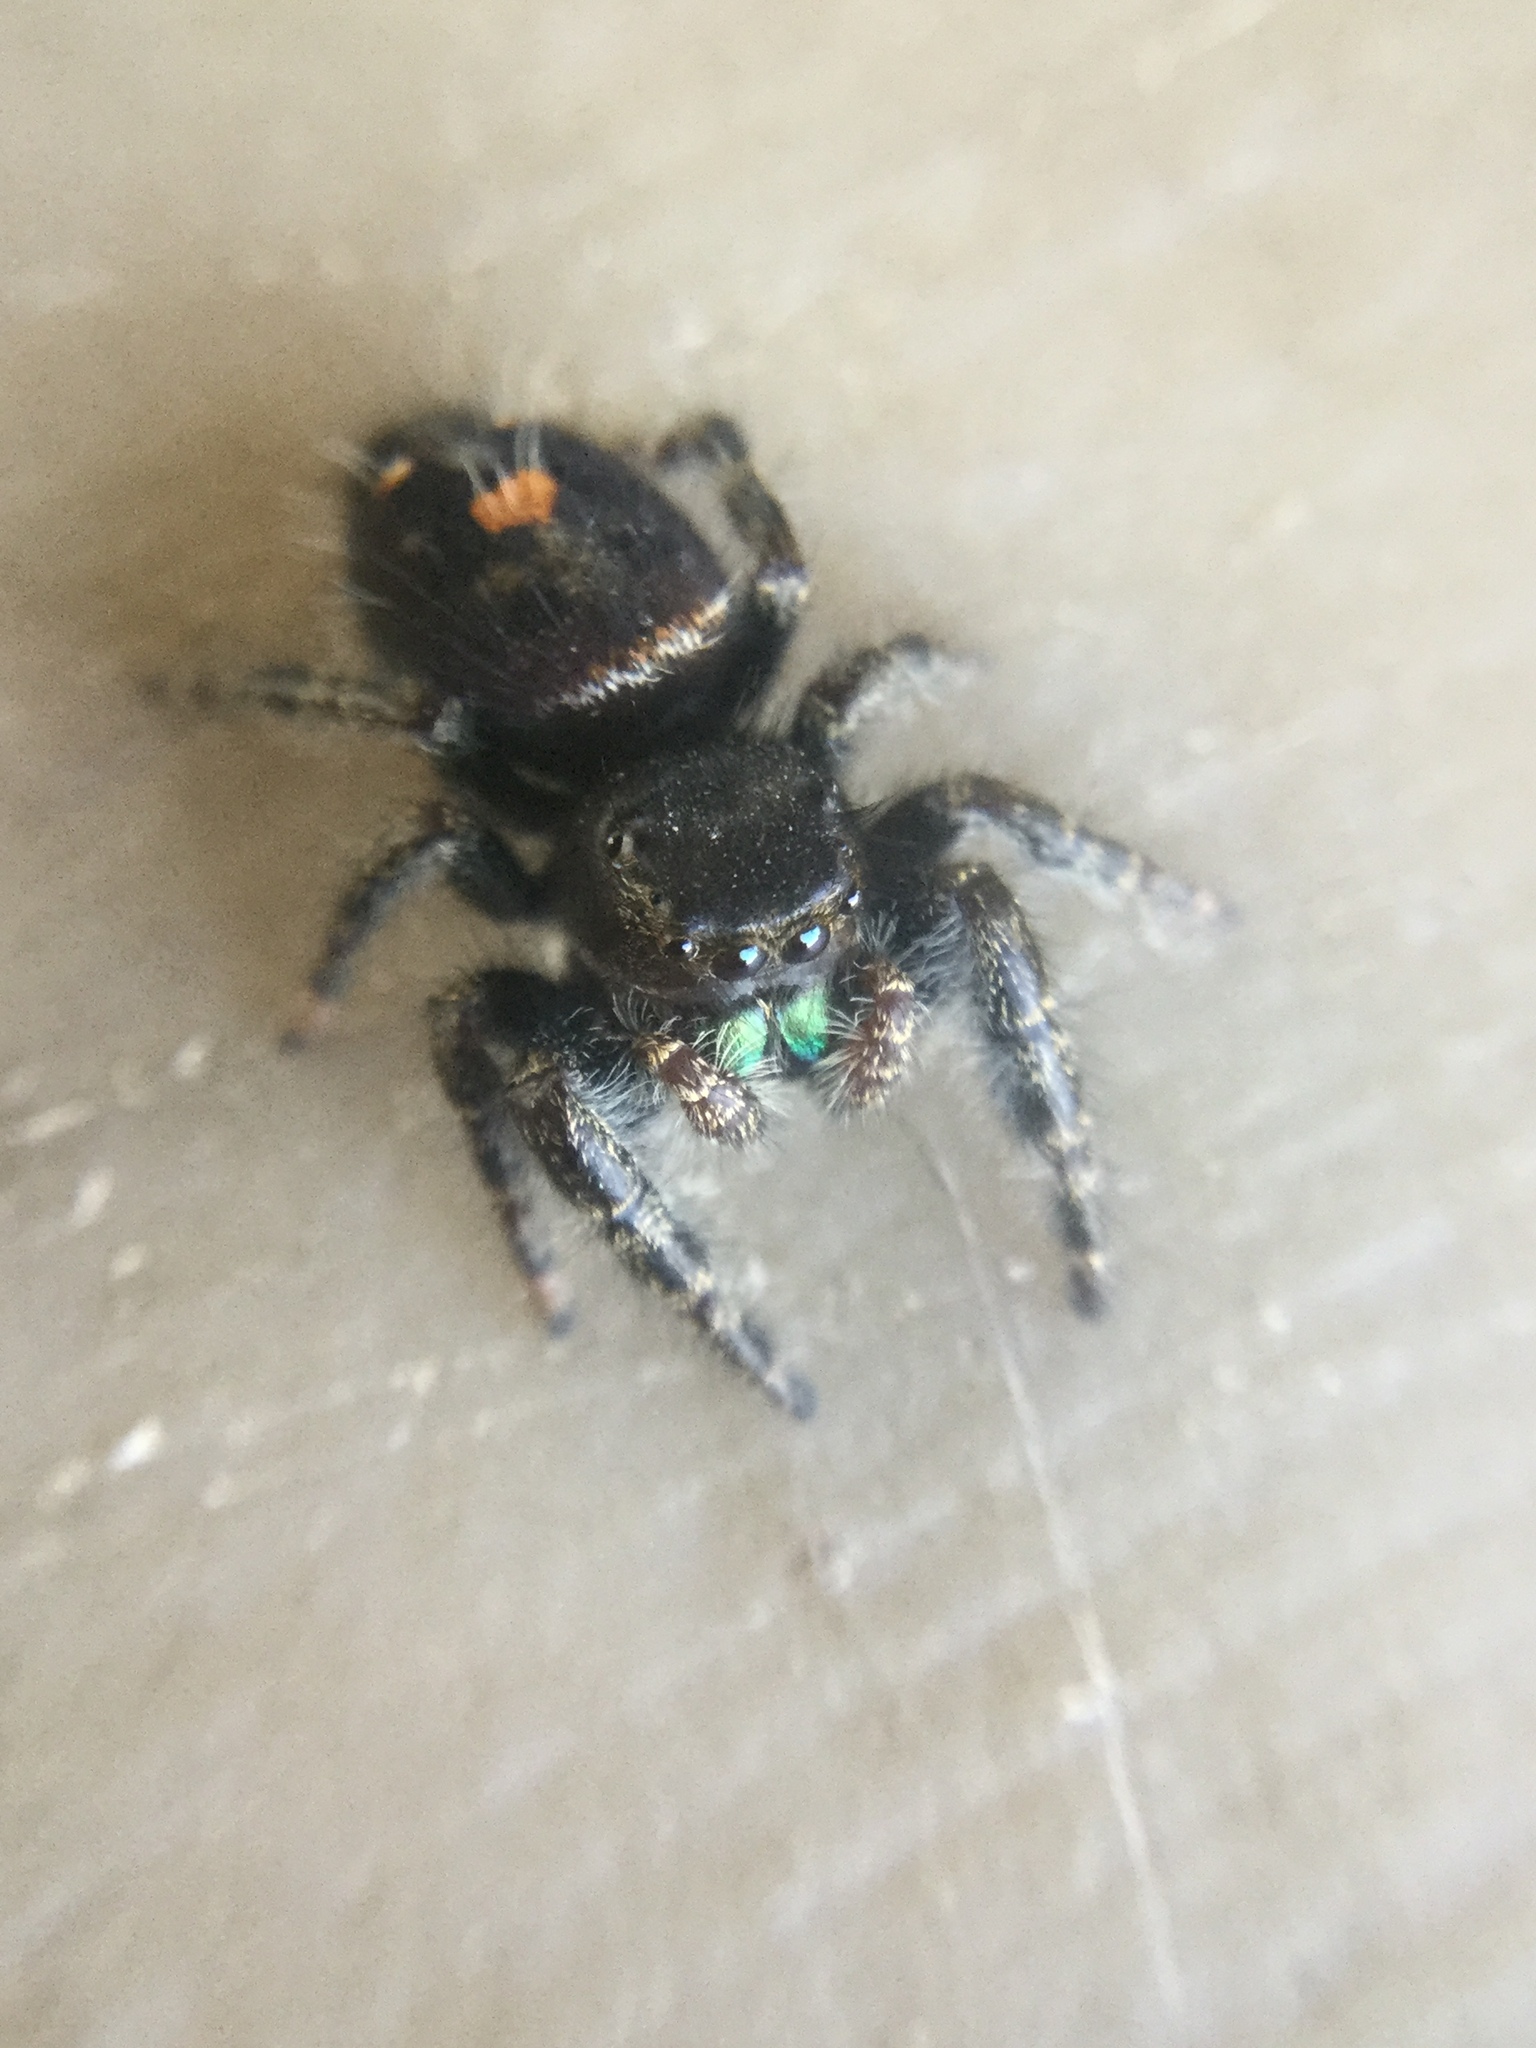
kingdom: Animalia
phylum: Arthropoda
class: Arachnida
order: Araneae
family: Salticidae
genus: Phidippus
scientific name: Phidippus audax
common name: Bold jumper
